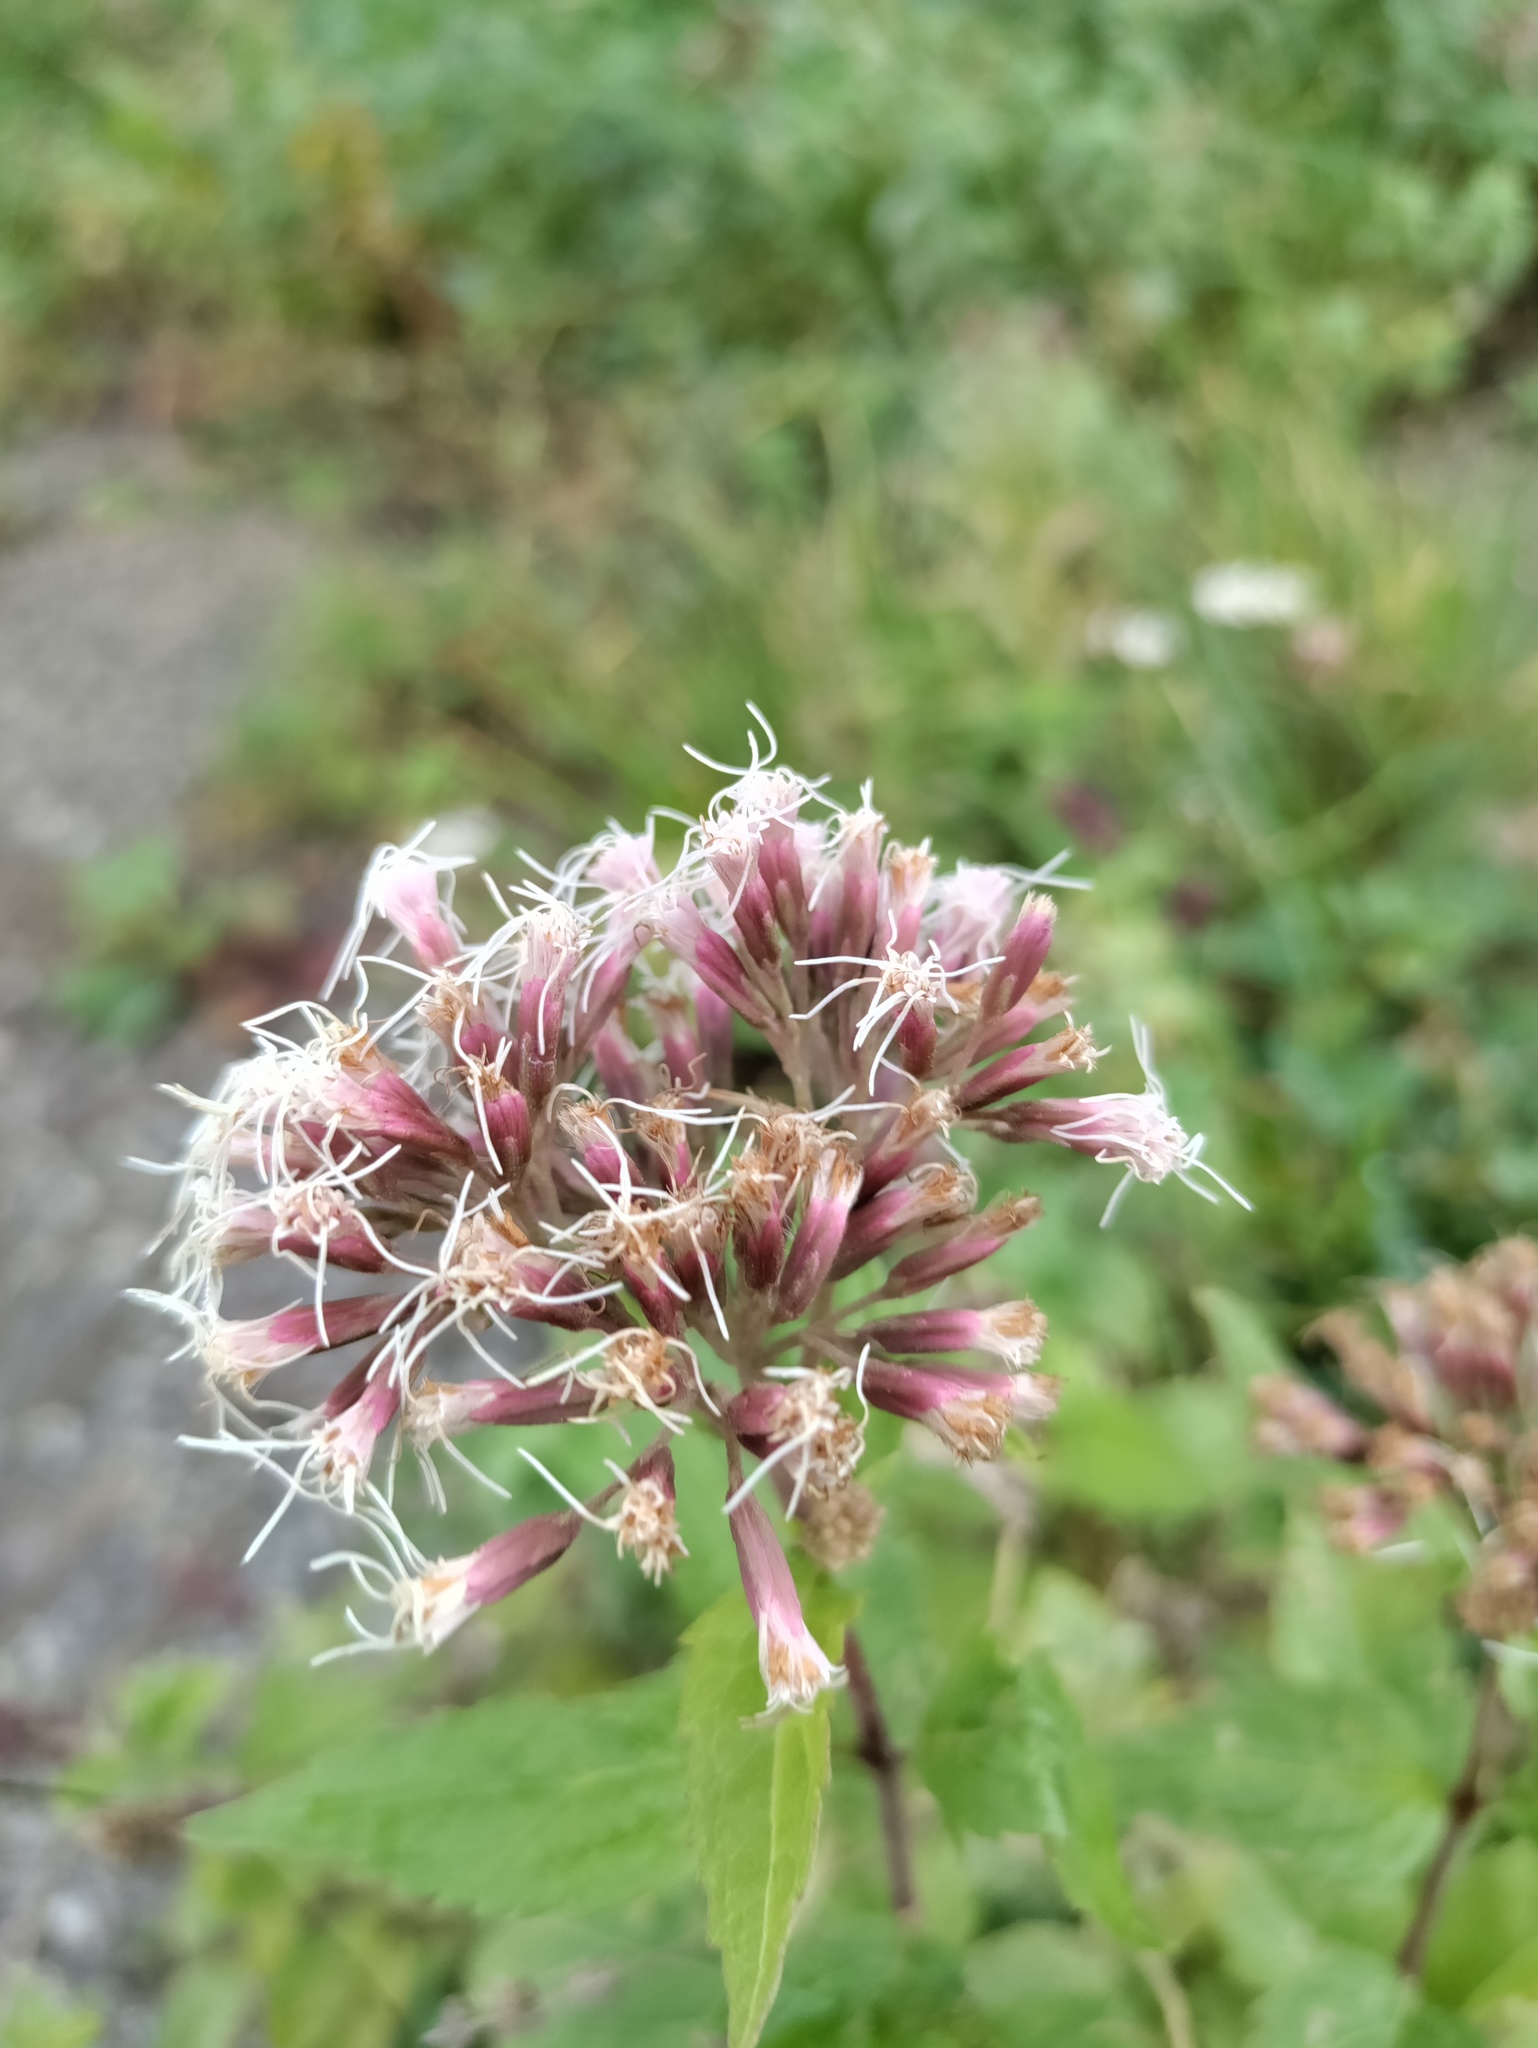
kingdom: Plantae
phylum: Tracheophyta
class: Magnoliopsida
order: Asterales
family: Asteraceae
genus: Eupatorium
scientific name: Eupatorium cannabinum
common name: Hemp-agrimony
